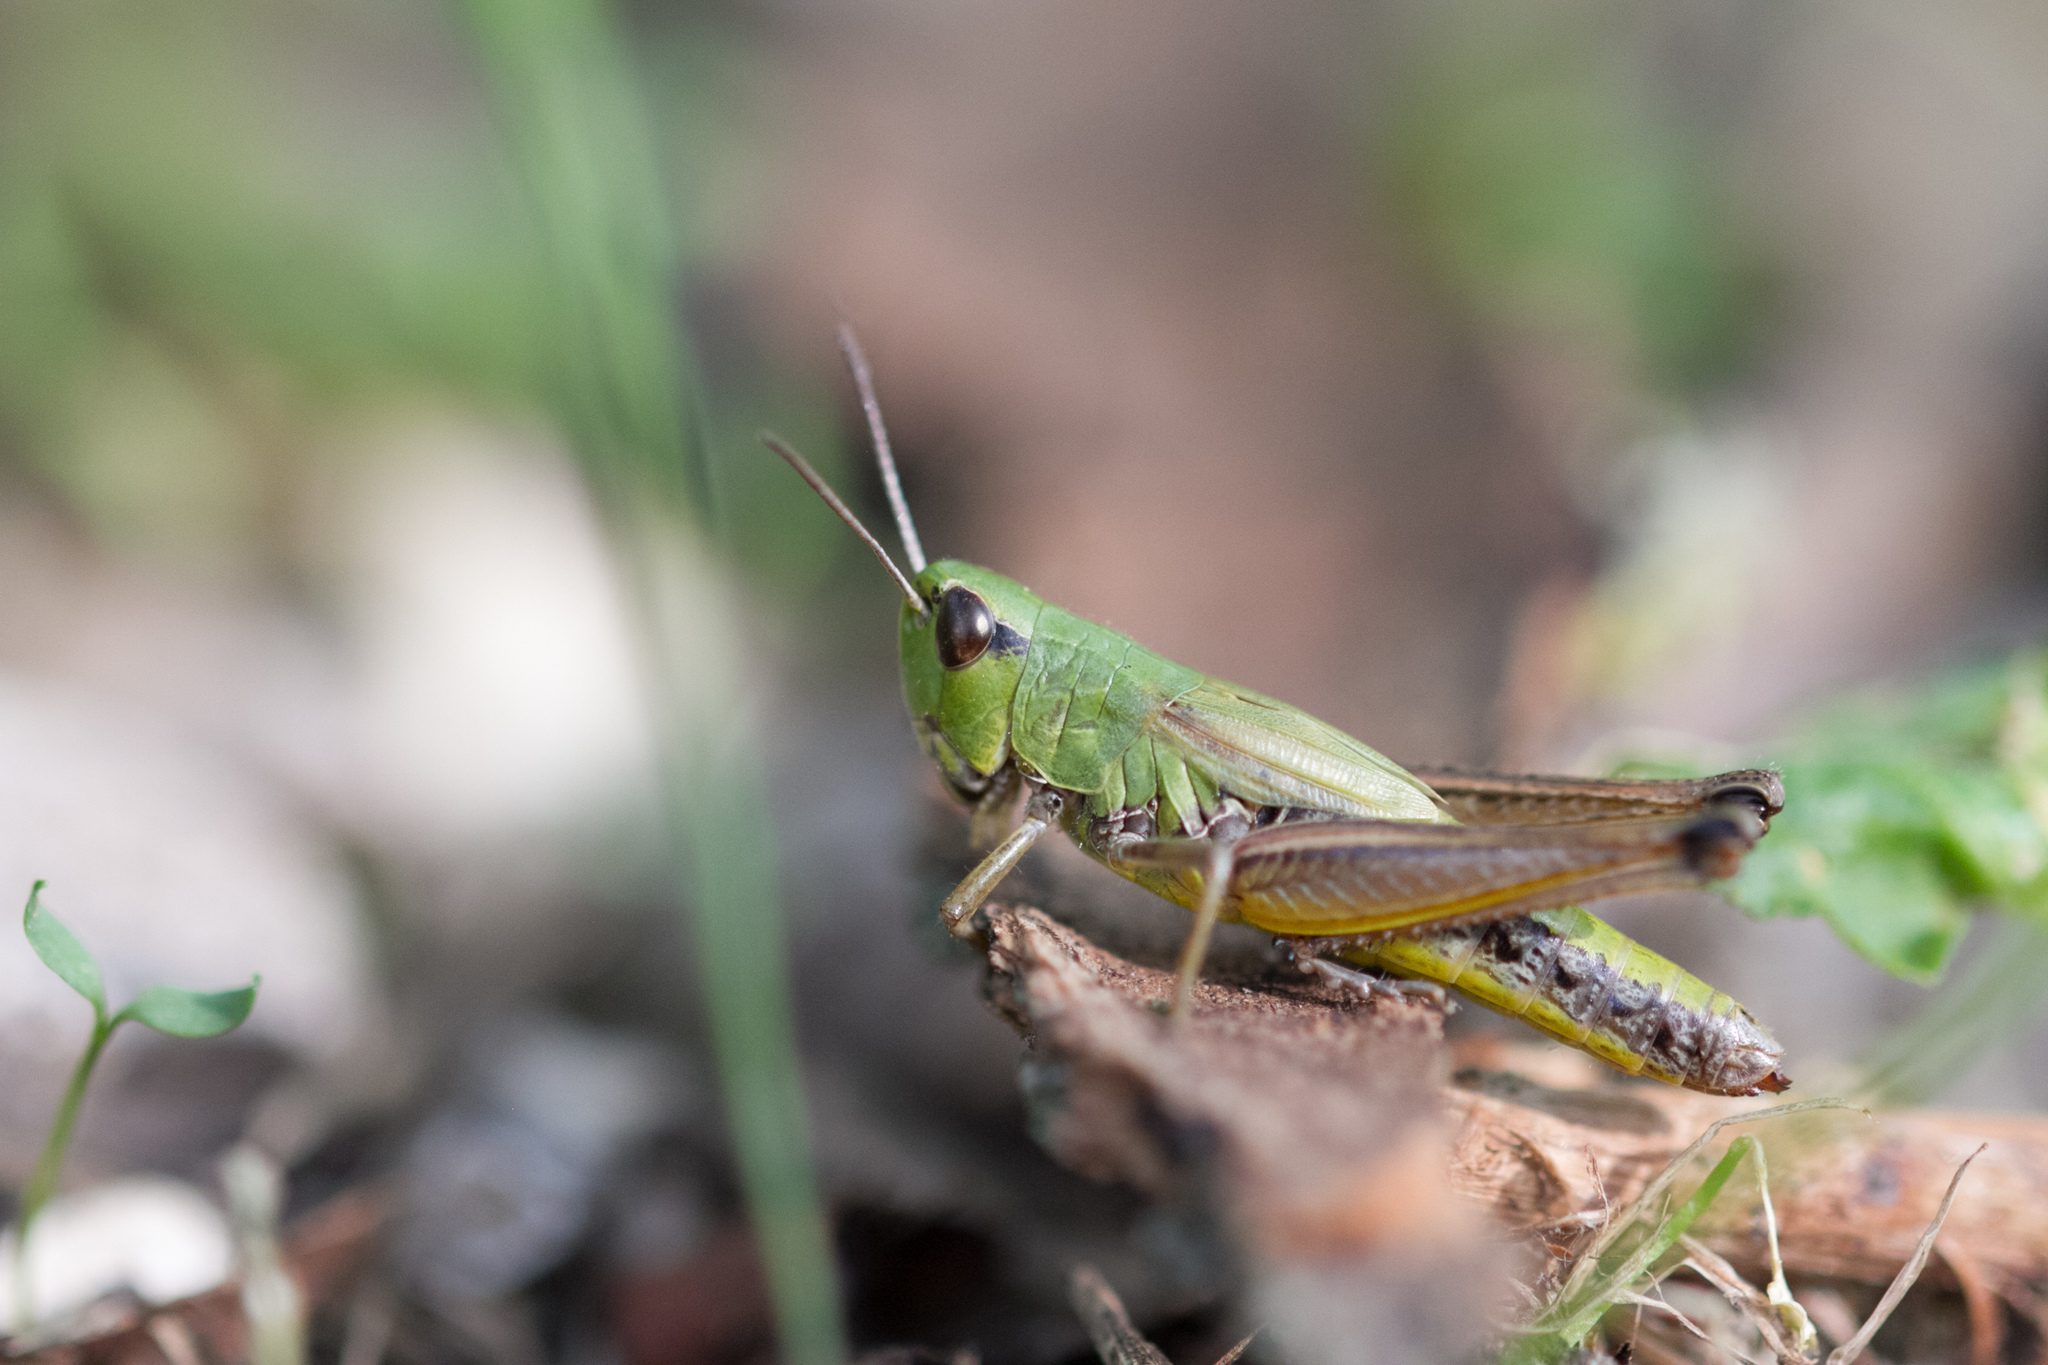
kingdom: Animalia
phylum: Arthropoda
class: Insecta
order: Orthoptera
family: Acrididae
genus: Pseudochorthippus
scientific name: Pseudochorthippus parallelus
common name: Meadow grasshopper
